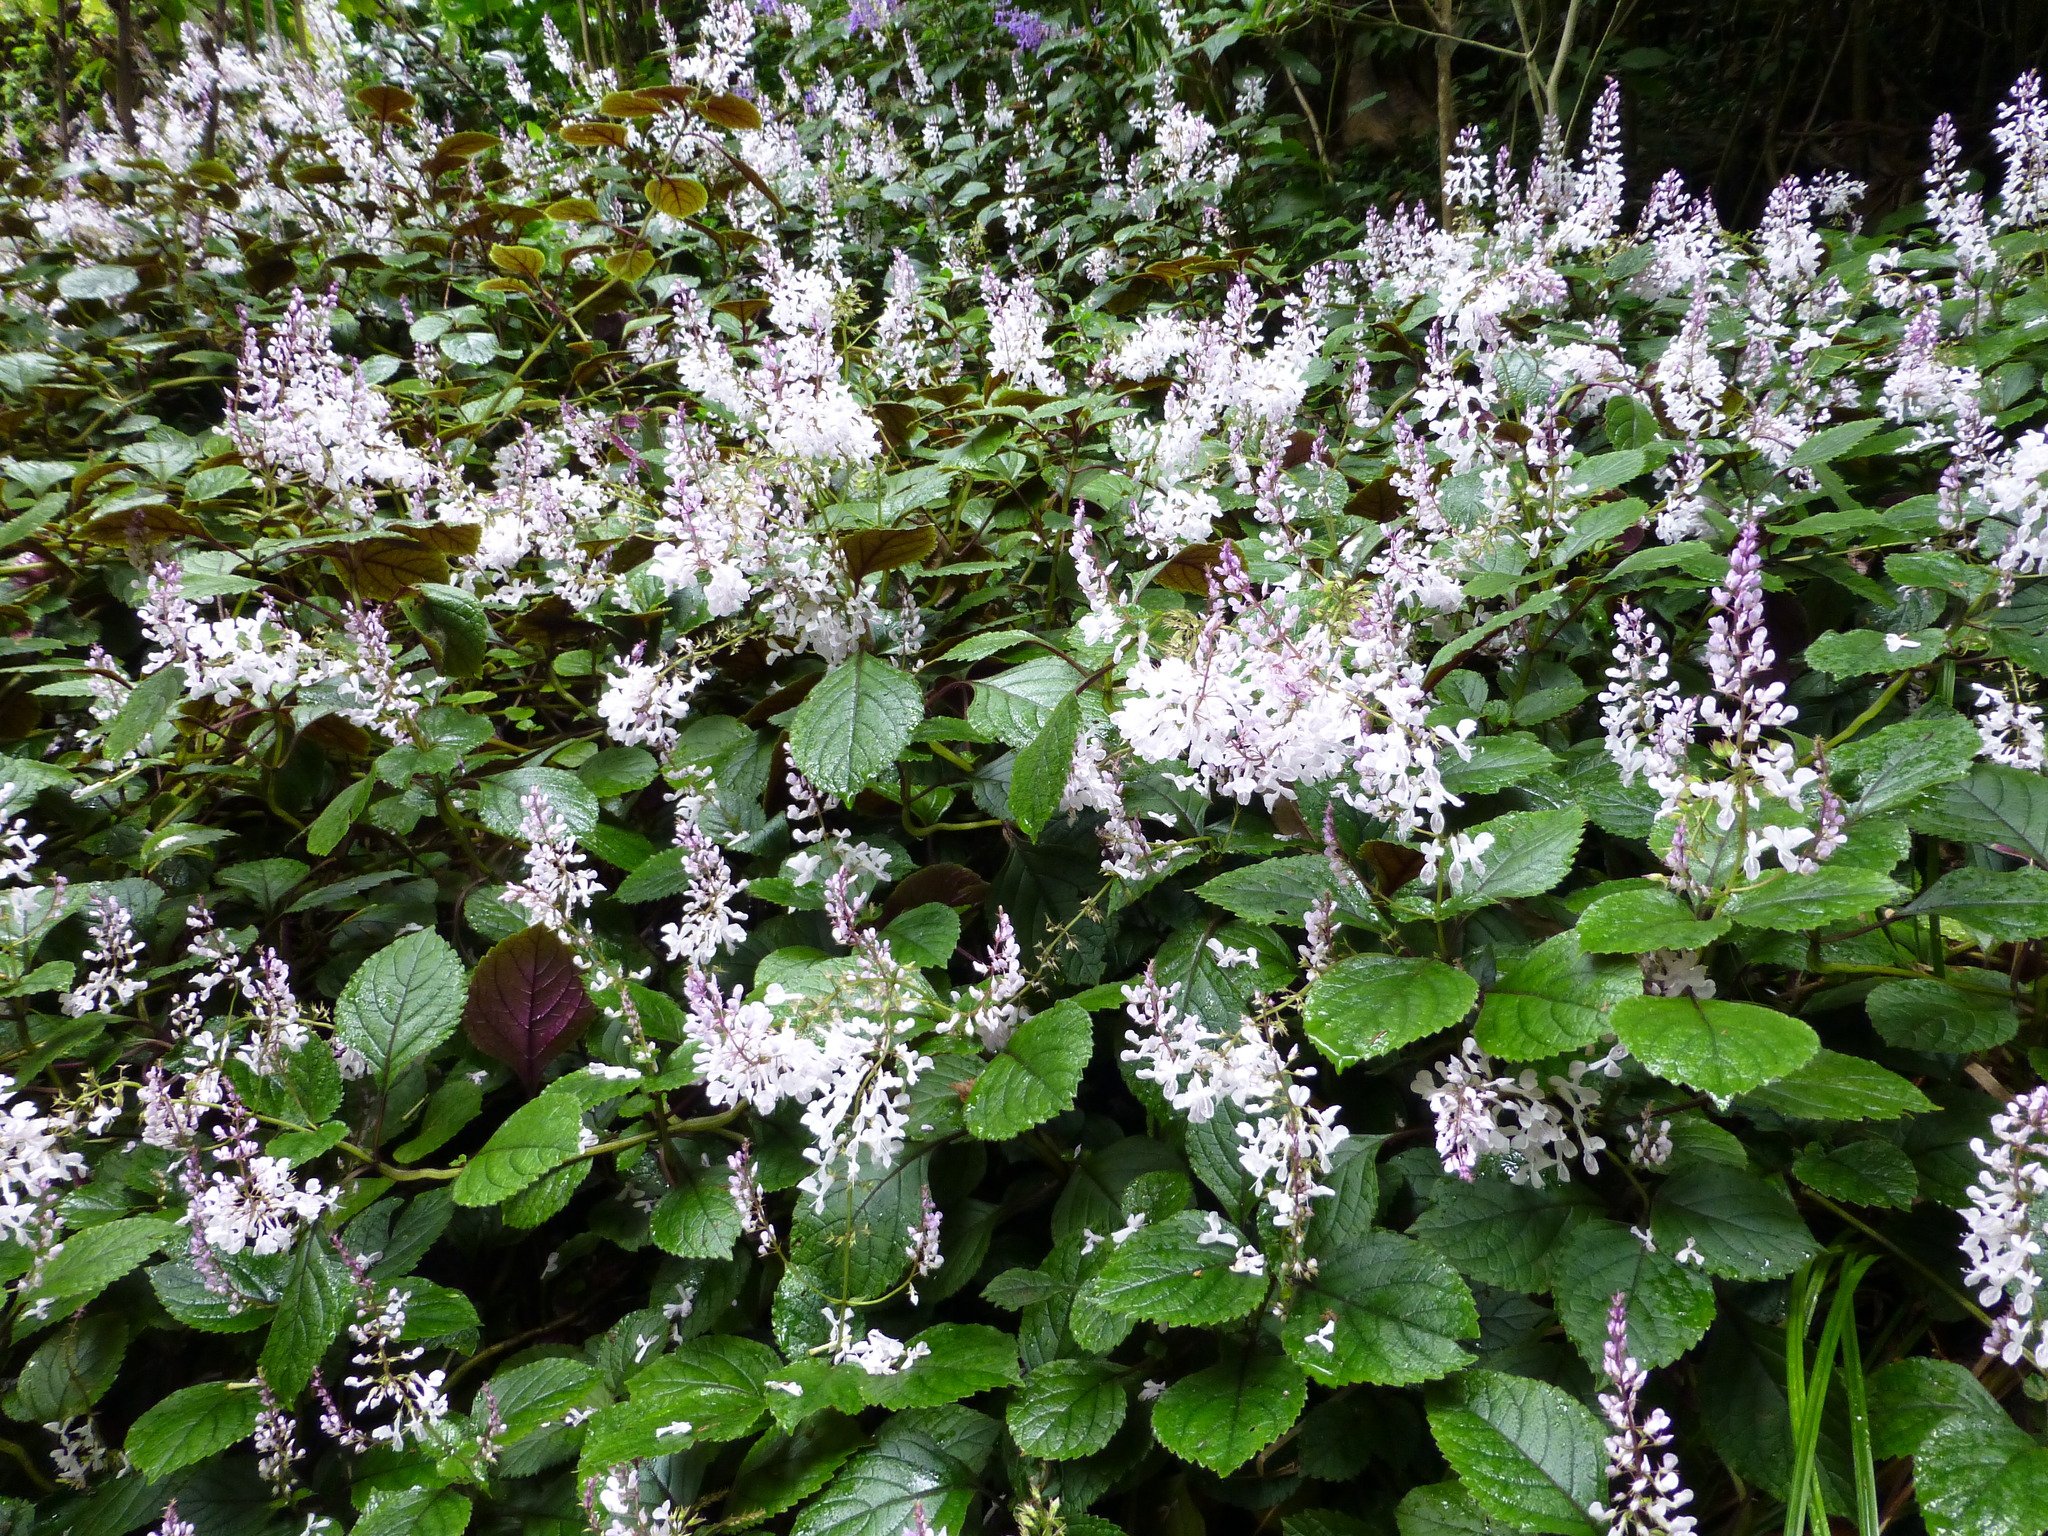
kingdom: Plantae
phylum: Tracheophyta
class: Magnoliopsida
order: Lamiales
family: Lamiaceae
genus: Plectranthus
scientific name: Plectranthus ciliatus
